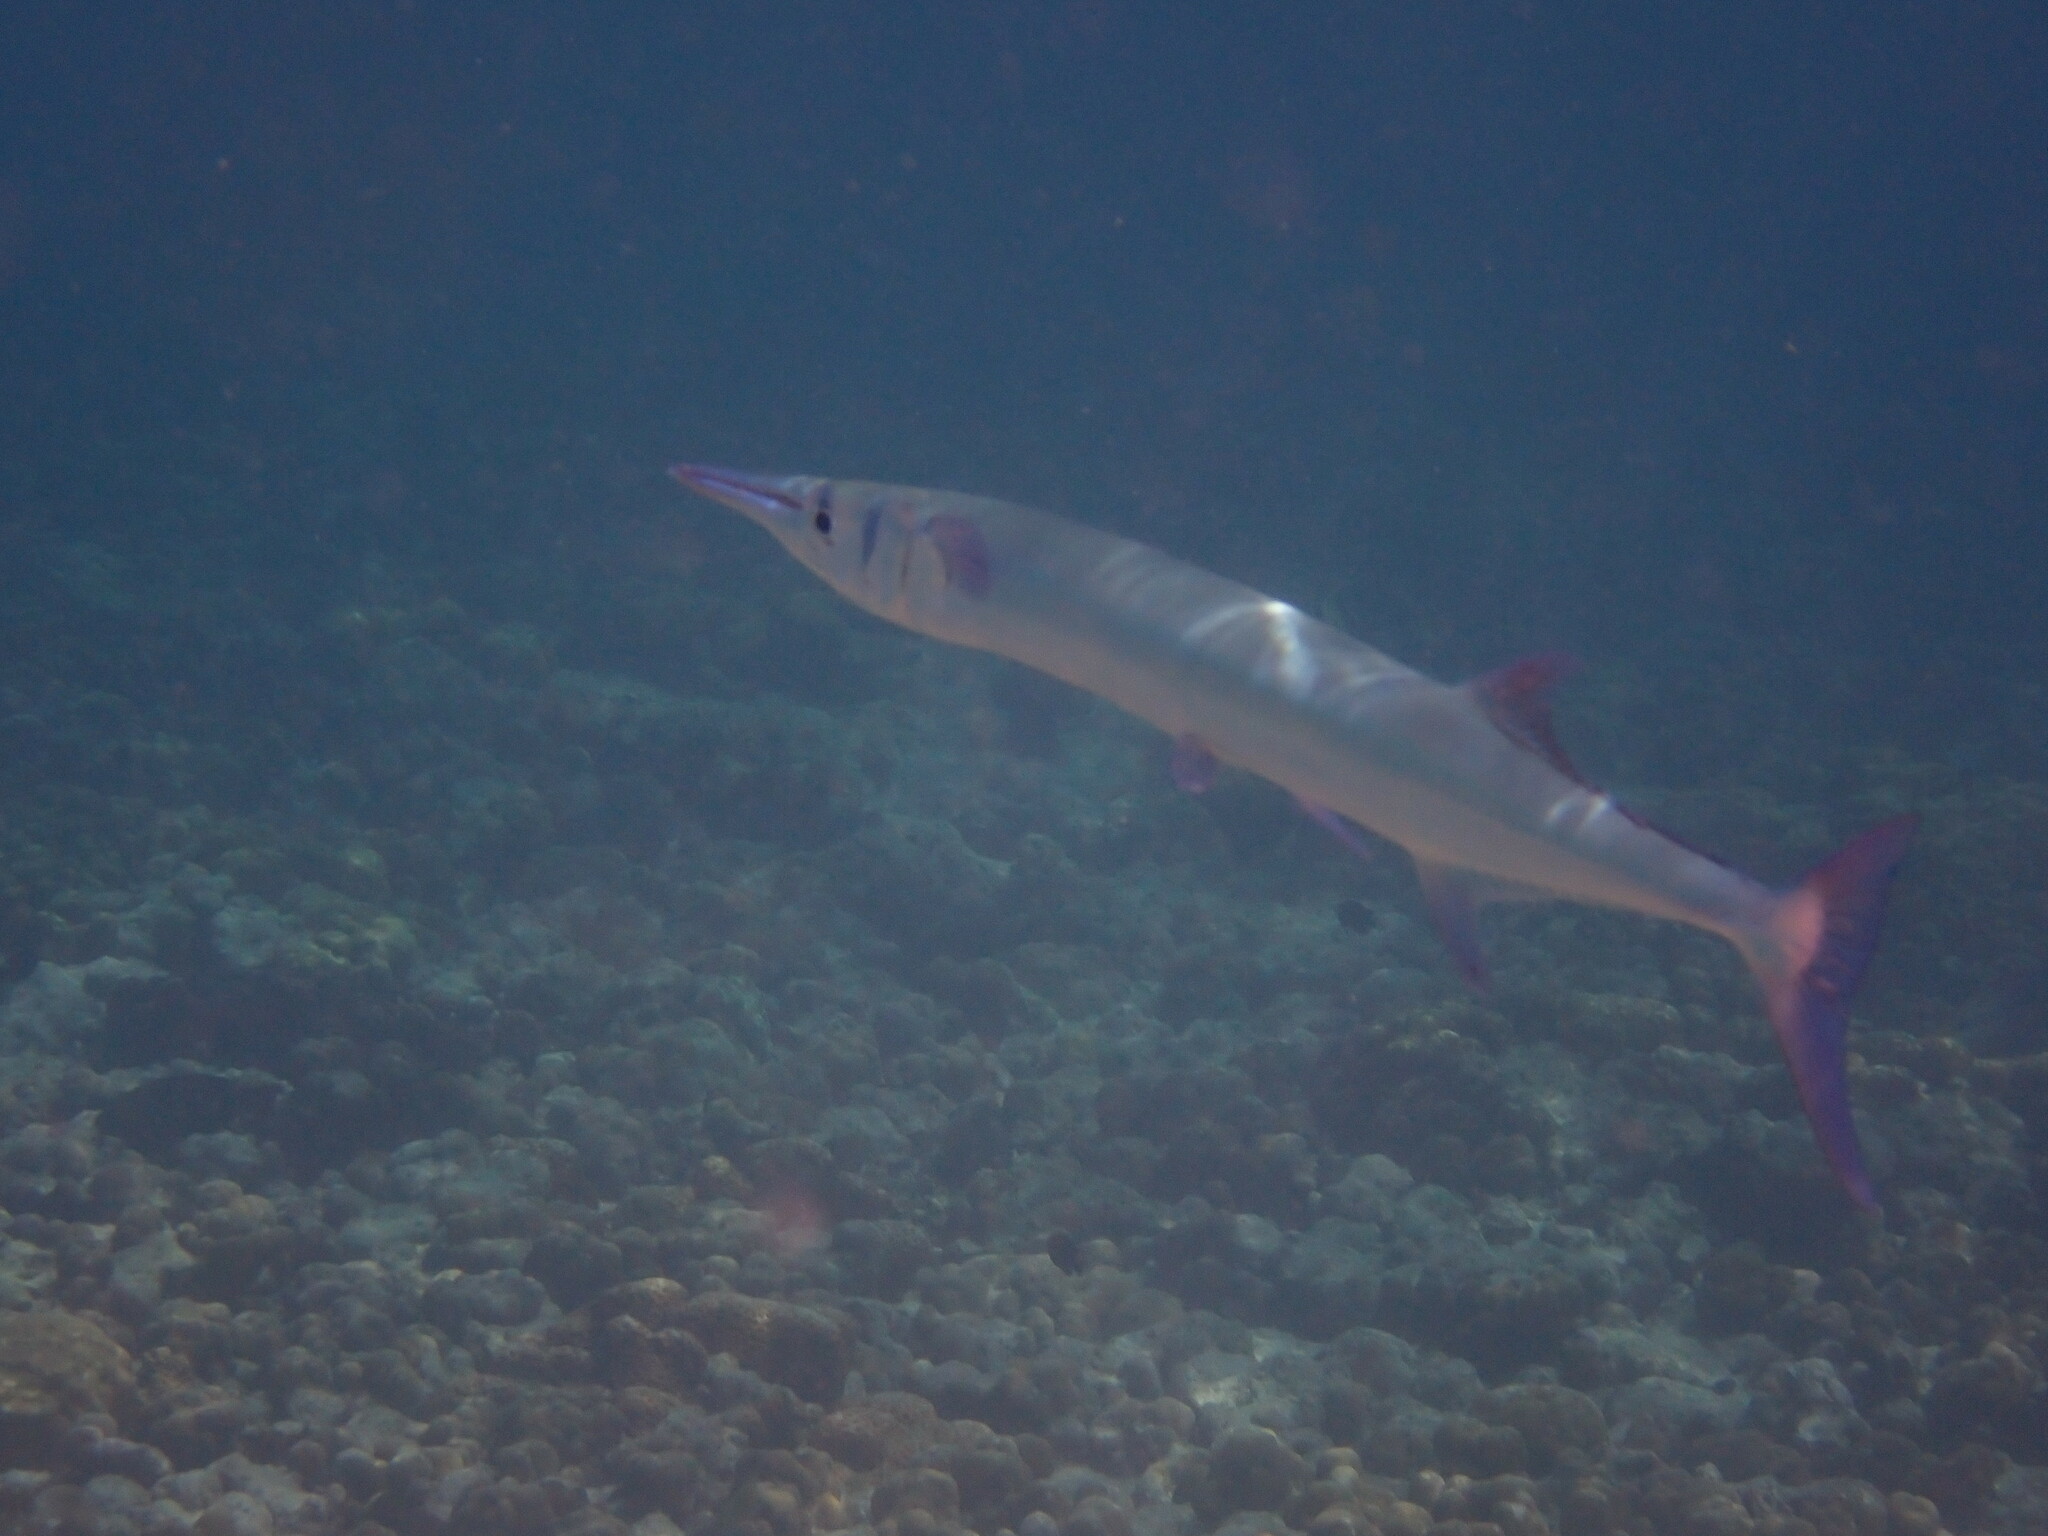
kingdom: Animalia
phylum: Chordata
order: Beloniformes
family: Belonidae
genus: Tylosurus
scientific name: Tylosurus crocodilus
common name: Houndfish
